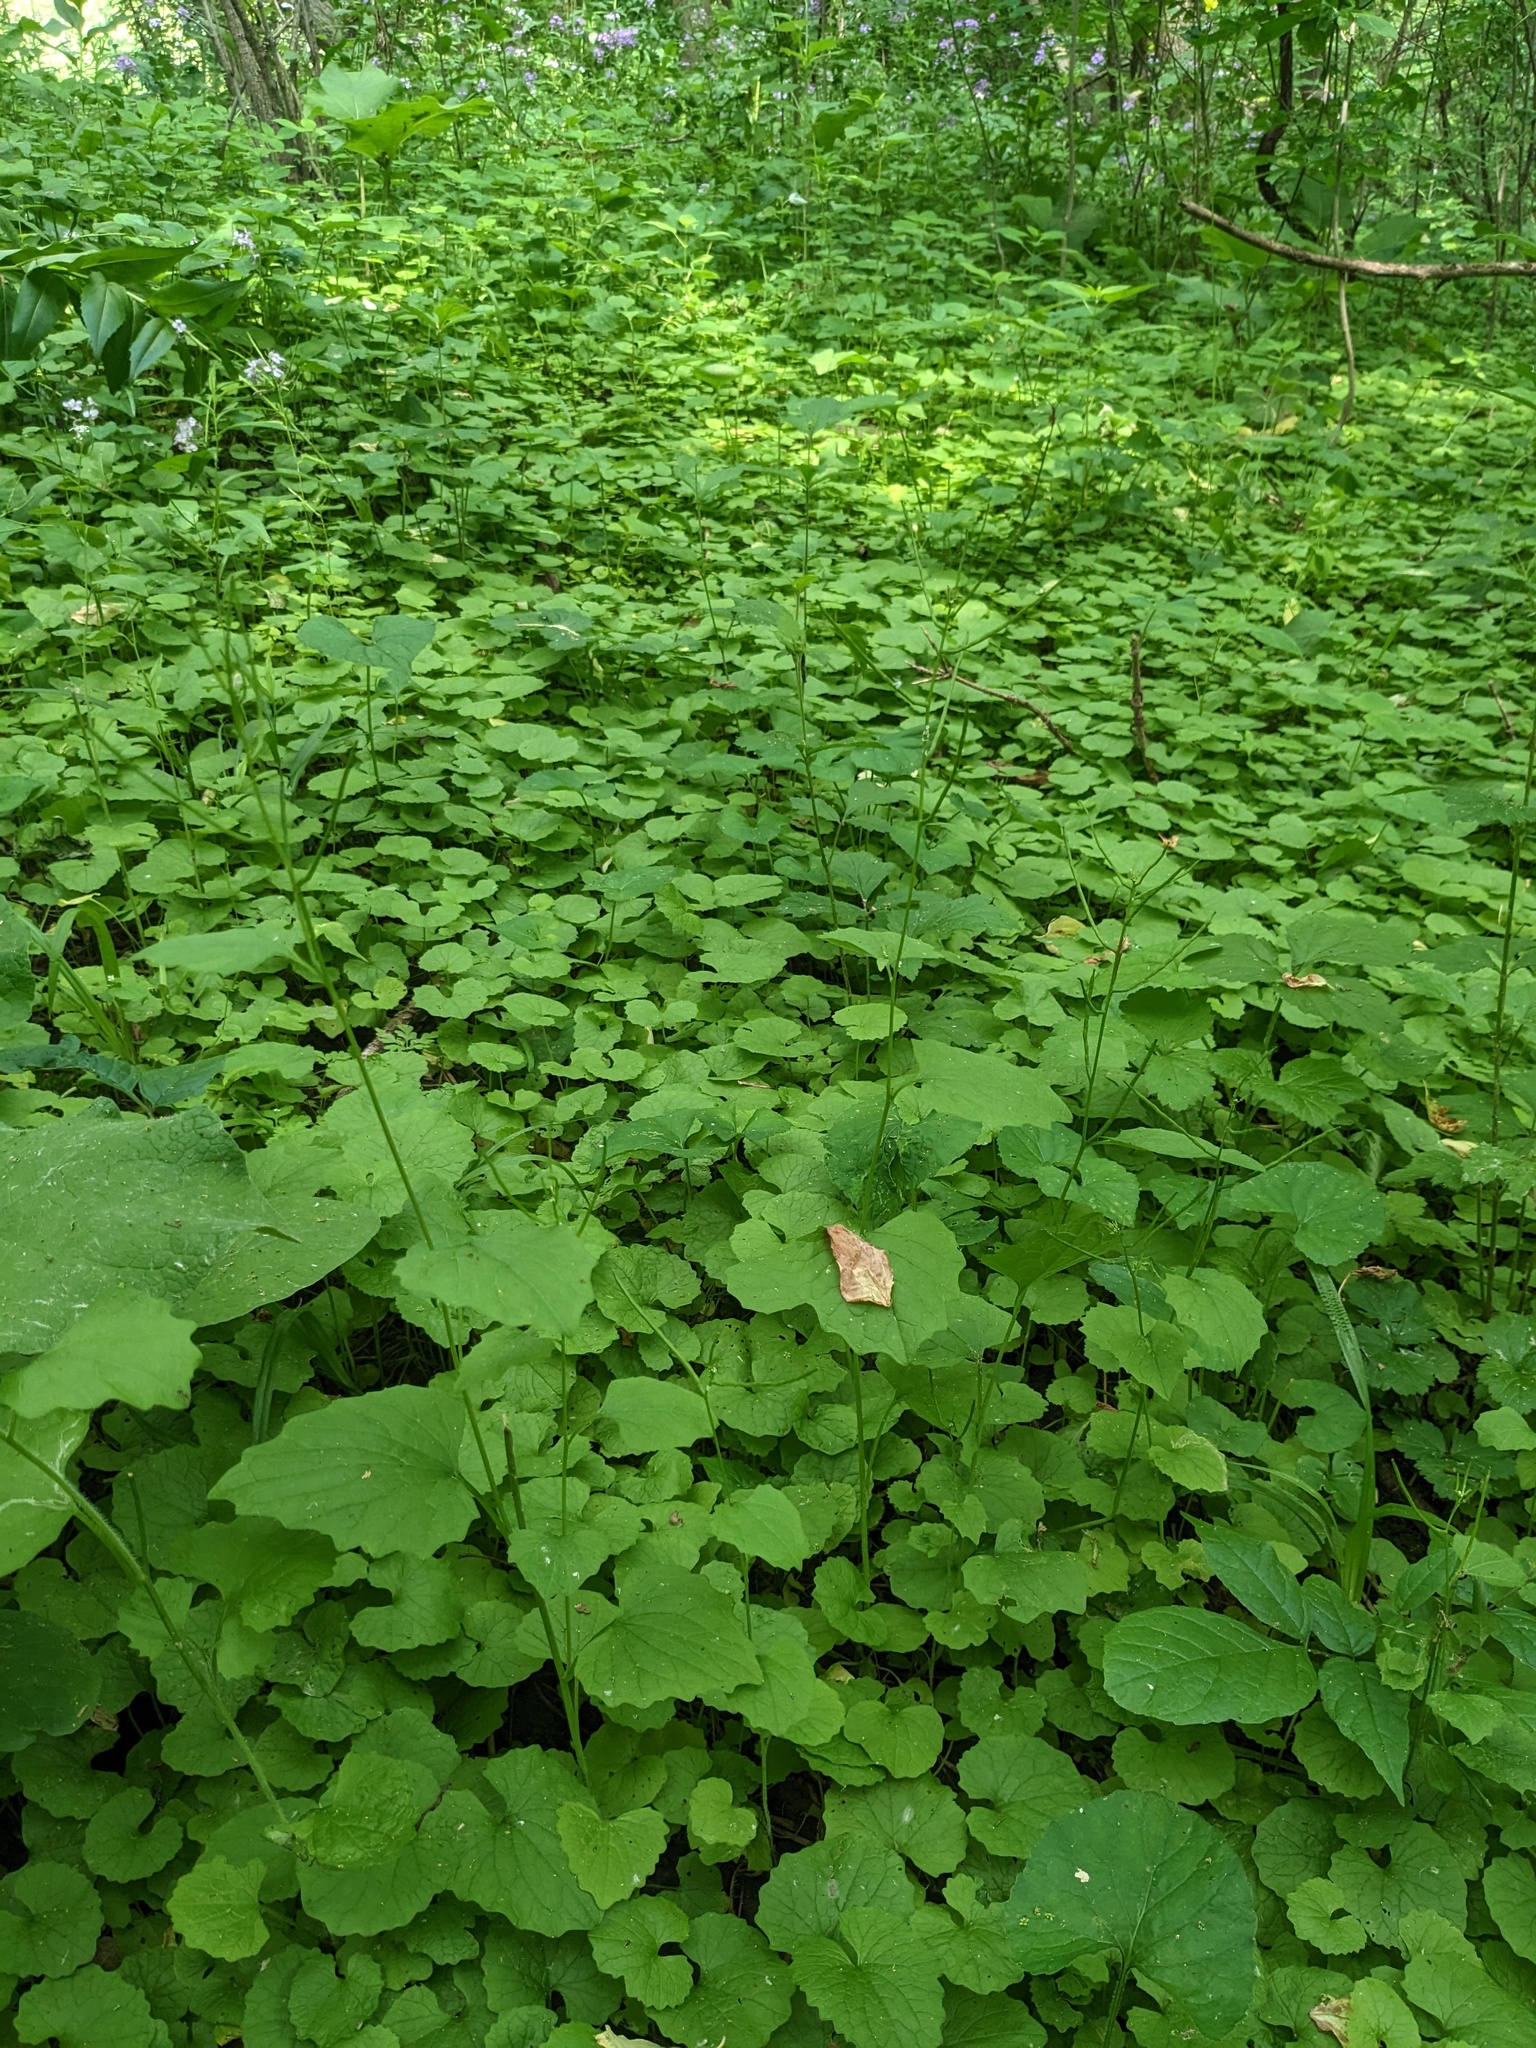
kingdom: Plantae
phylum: Tracheophyta
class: Magnoliopsida
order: Brassicales
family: Brassicaceae
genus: Alliaria
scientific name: Alliaria petiolata
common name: Garlic mustard
